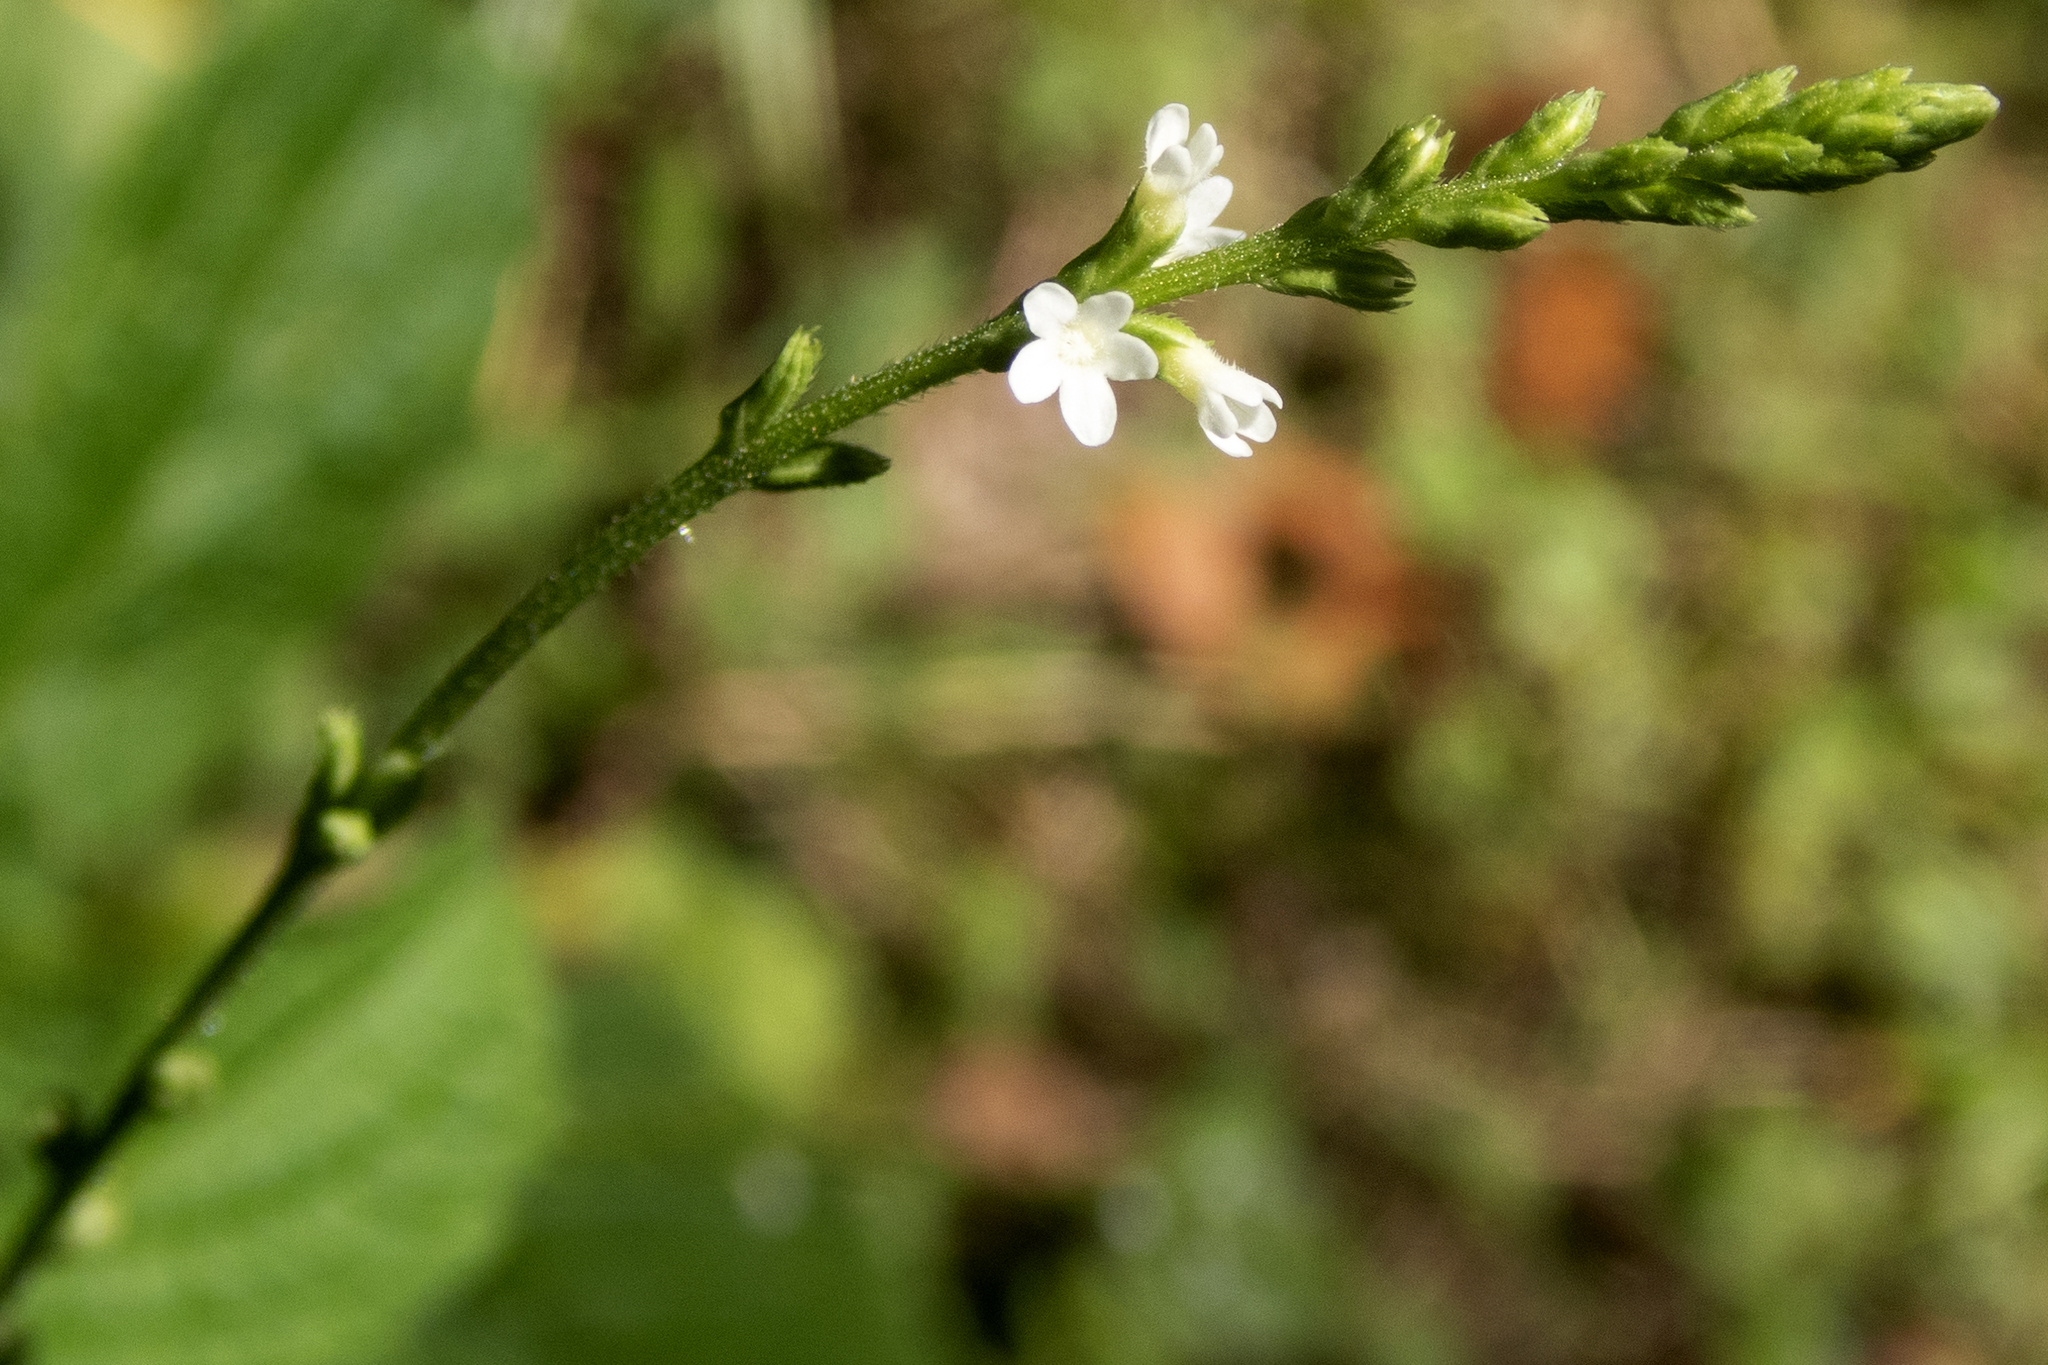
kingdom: Plantae
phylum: Tracheophyta
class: Magnoliopsida
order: Lamiales
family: Verbenaceae
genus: Verbena
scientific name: Verbena urticifolia
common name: Nettle-leaved vervain
